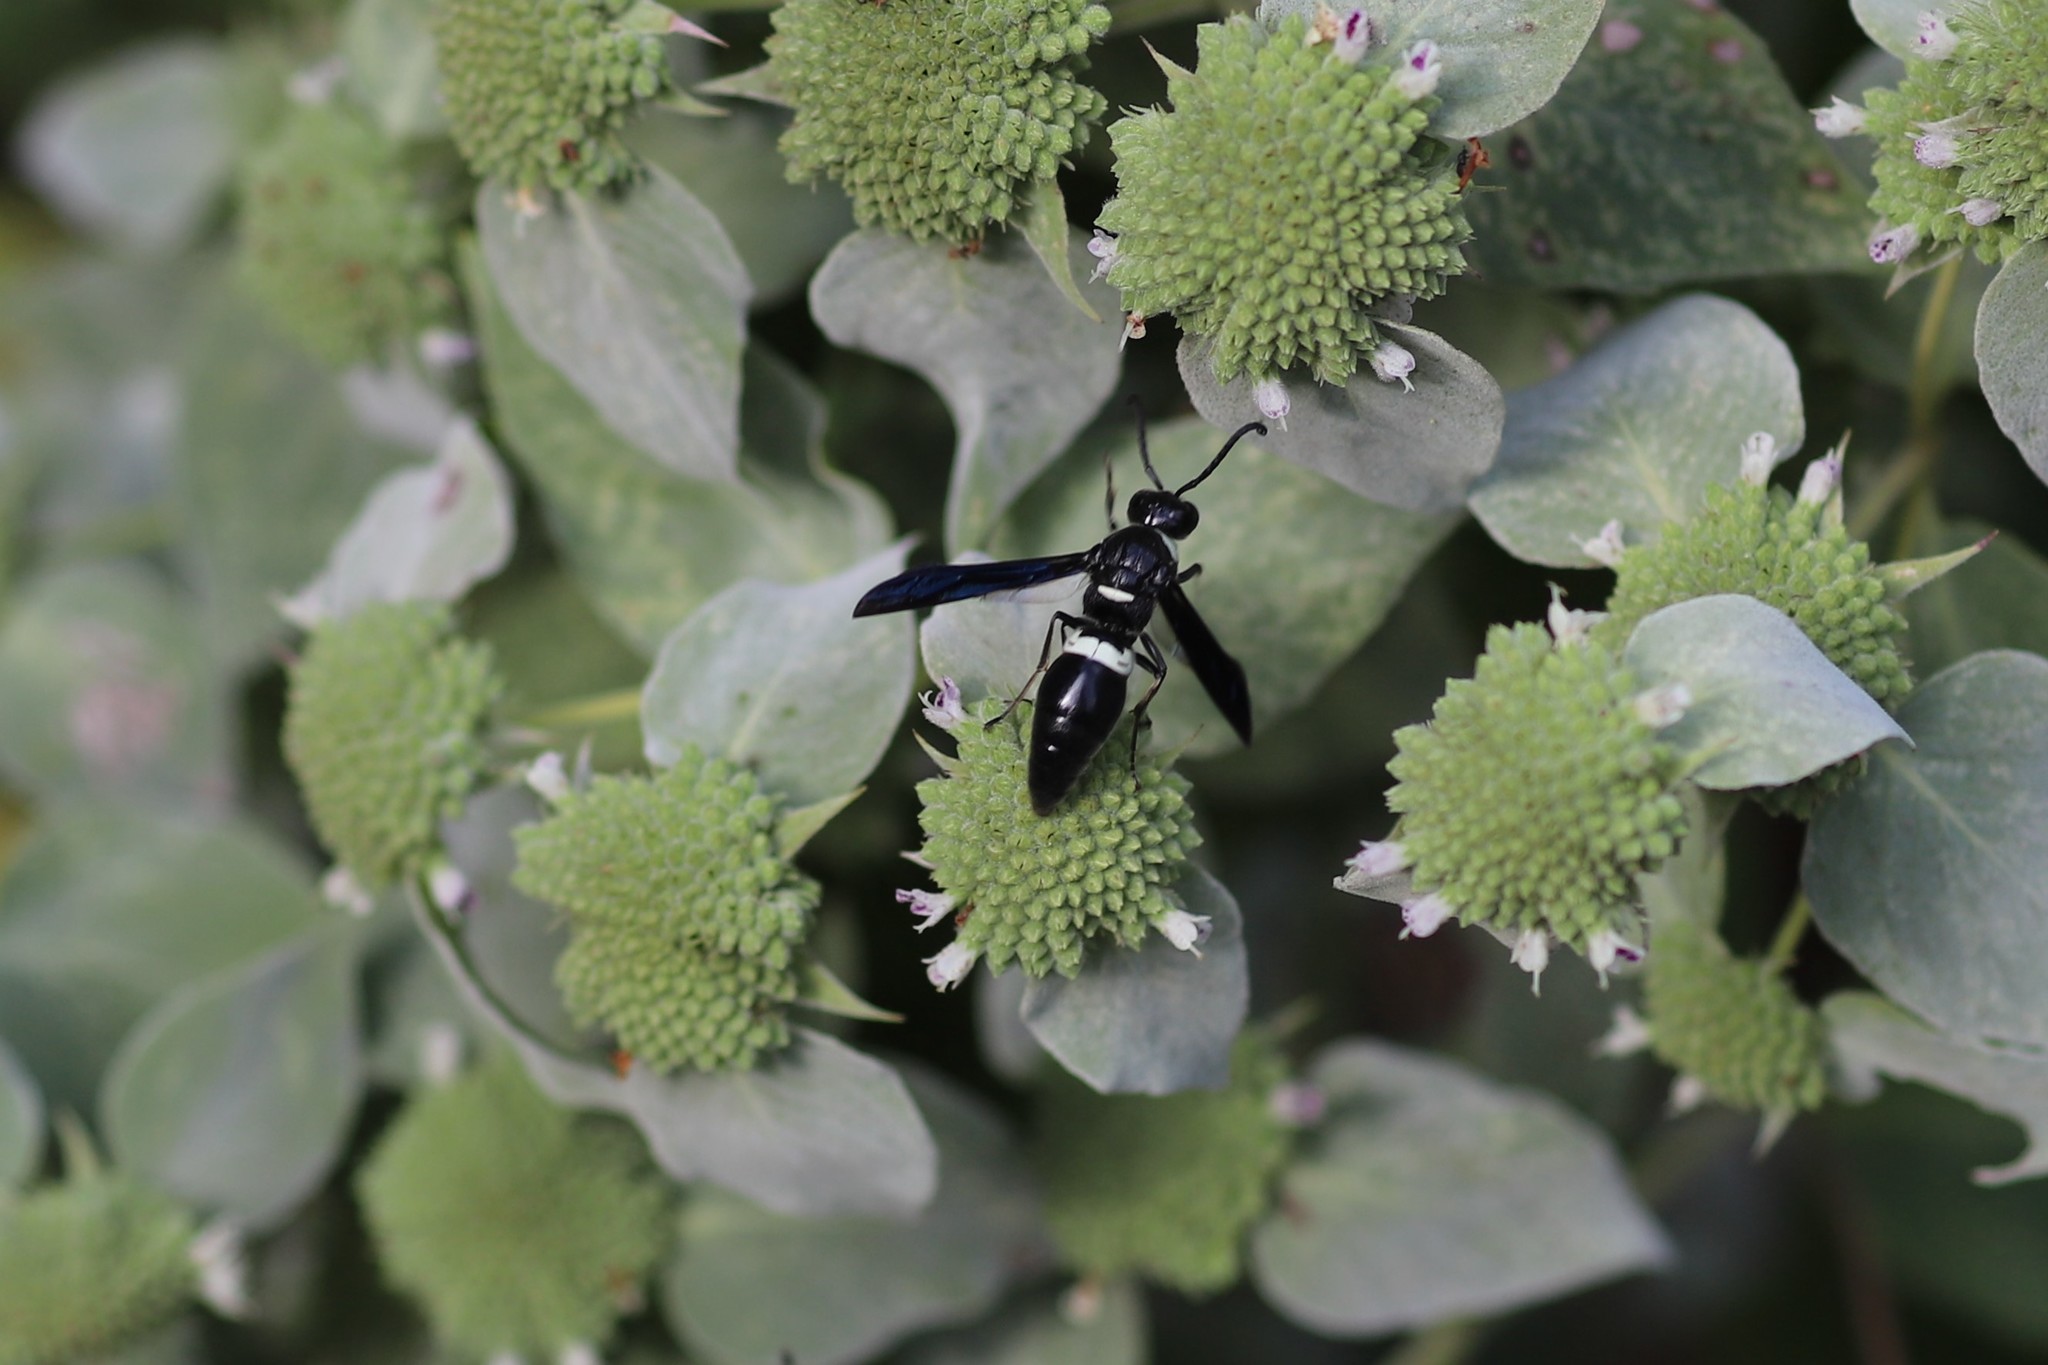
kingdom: Animalia
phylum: Arthropoda
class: Insecta
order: Hymenoptera
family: Eumenidae
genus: Monobia
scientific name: Monobia quadridens
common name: Four-toothed mason wasp
